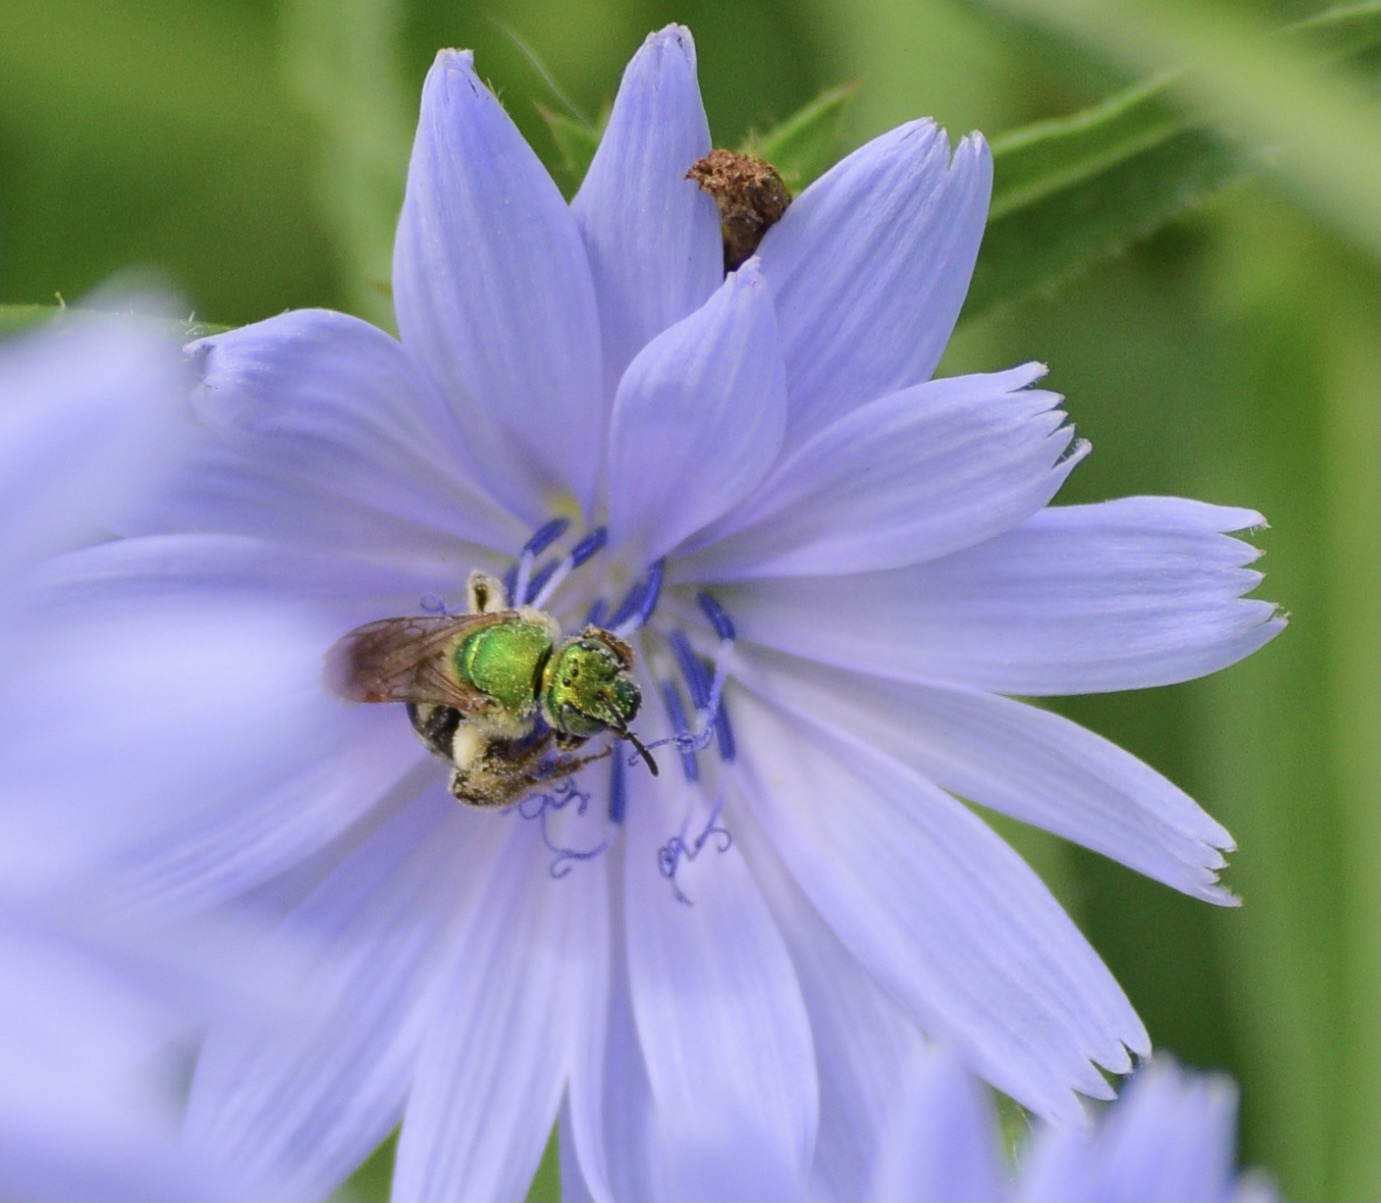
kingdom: Animalia
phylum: Arthropoda
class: Insecta
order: Hymenoptera
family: Halictidae
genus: Agapostemon
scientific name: Agapostemon virescens
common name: Bicolored striped sweat bee
